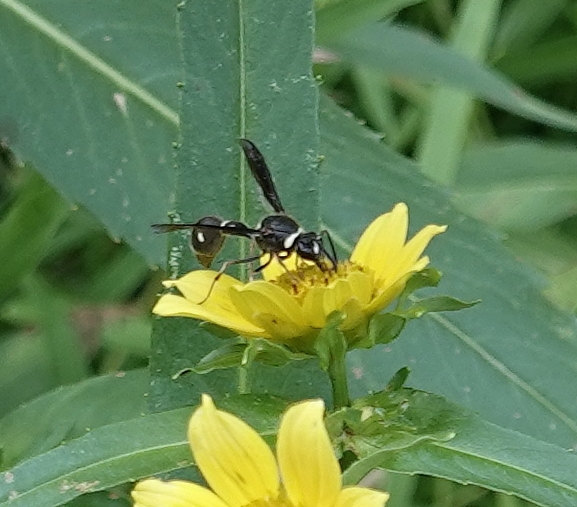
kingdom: Animalia
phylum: Arthropoda
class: Insecta
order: Hymenoptera
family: Vespidae
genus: Eumenes
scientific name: Eumenes fraternus
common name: Fraternal potter wasp
